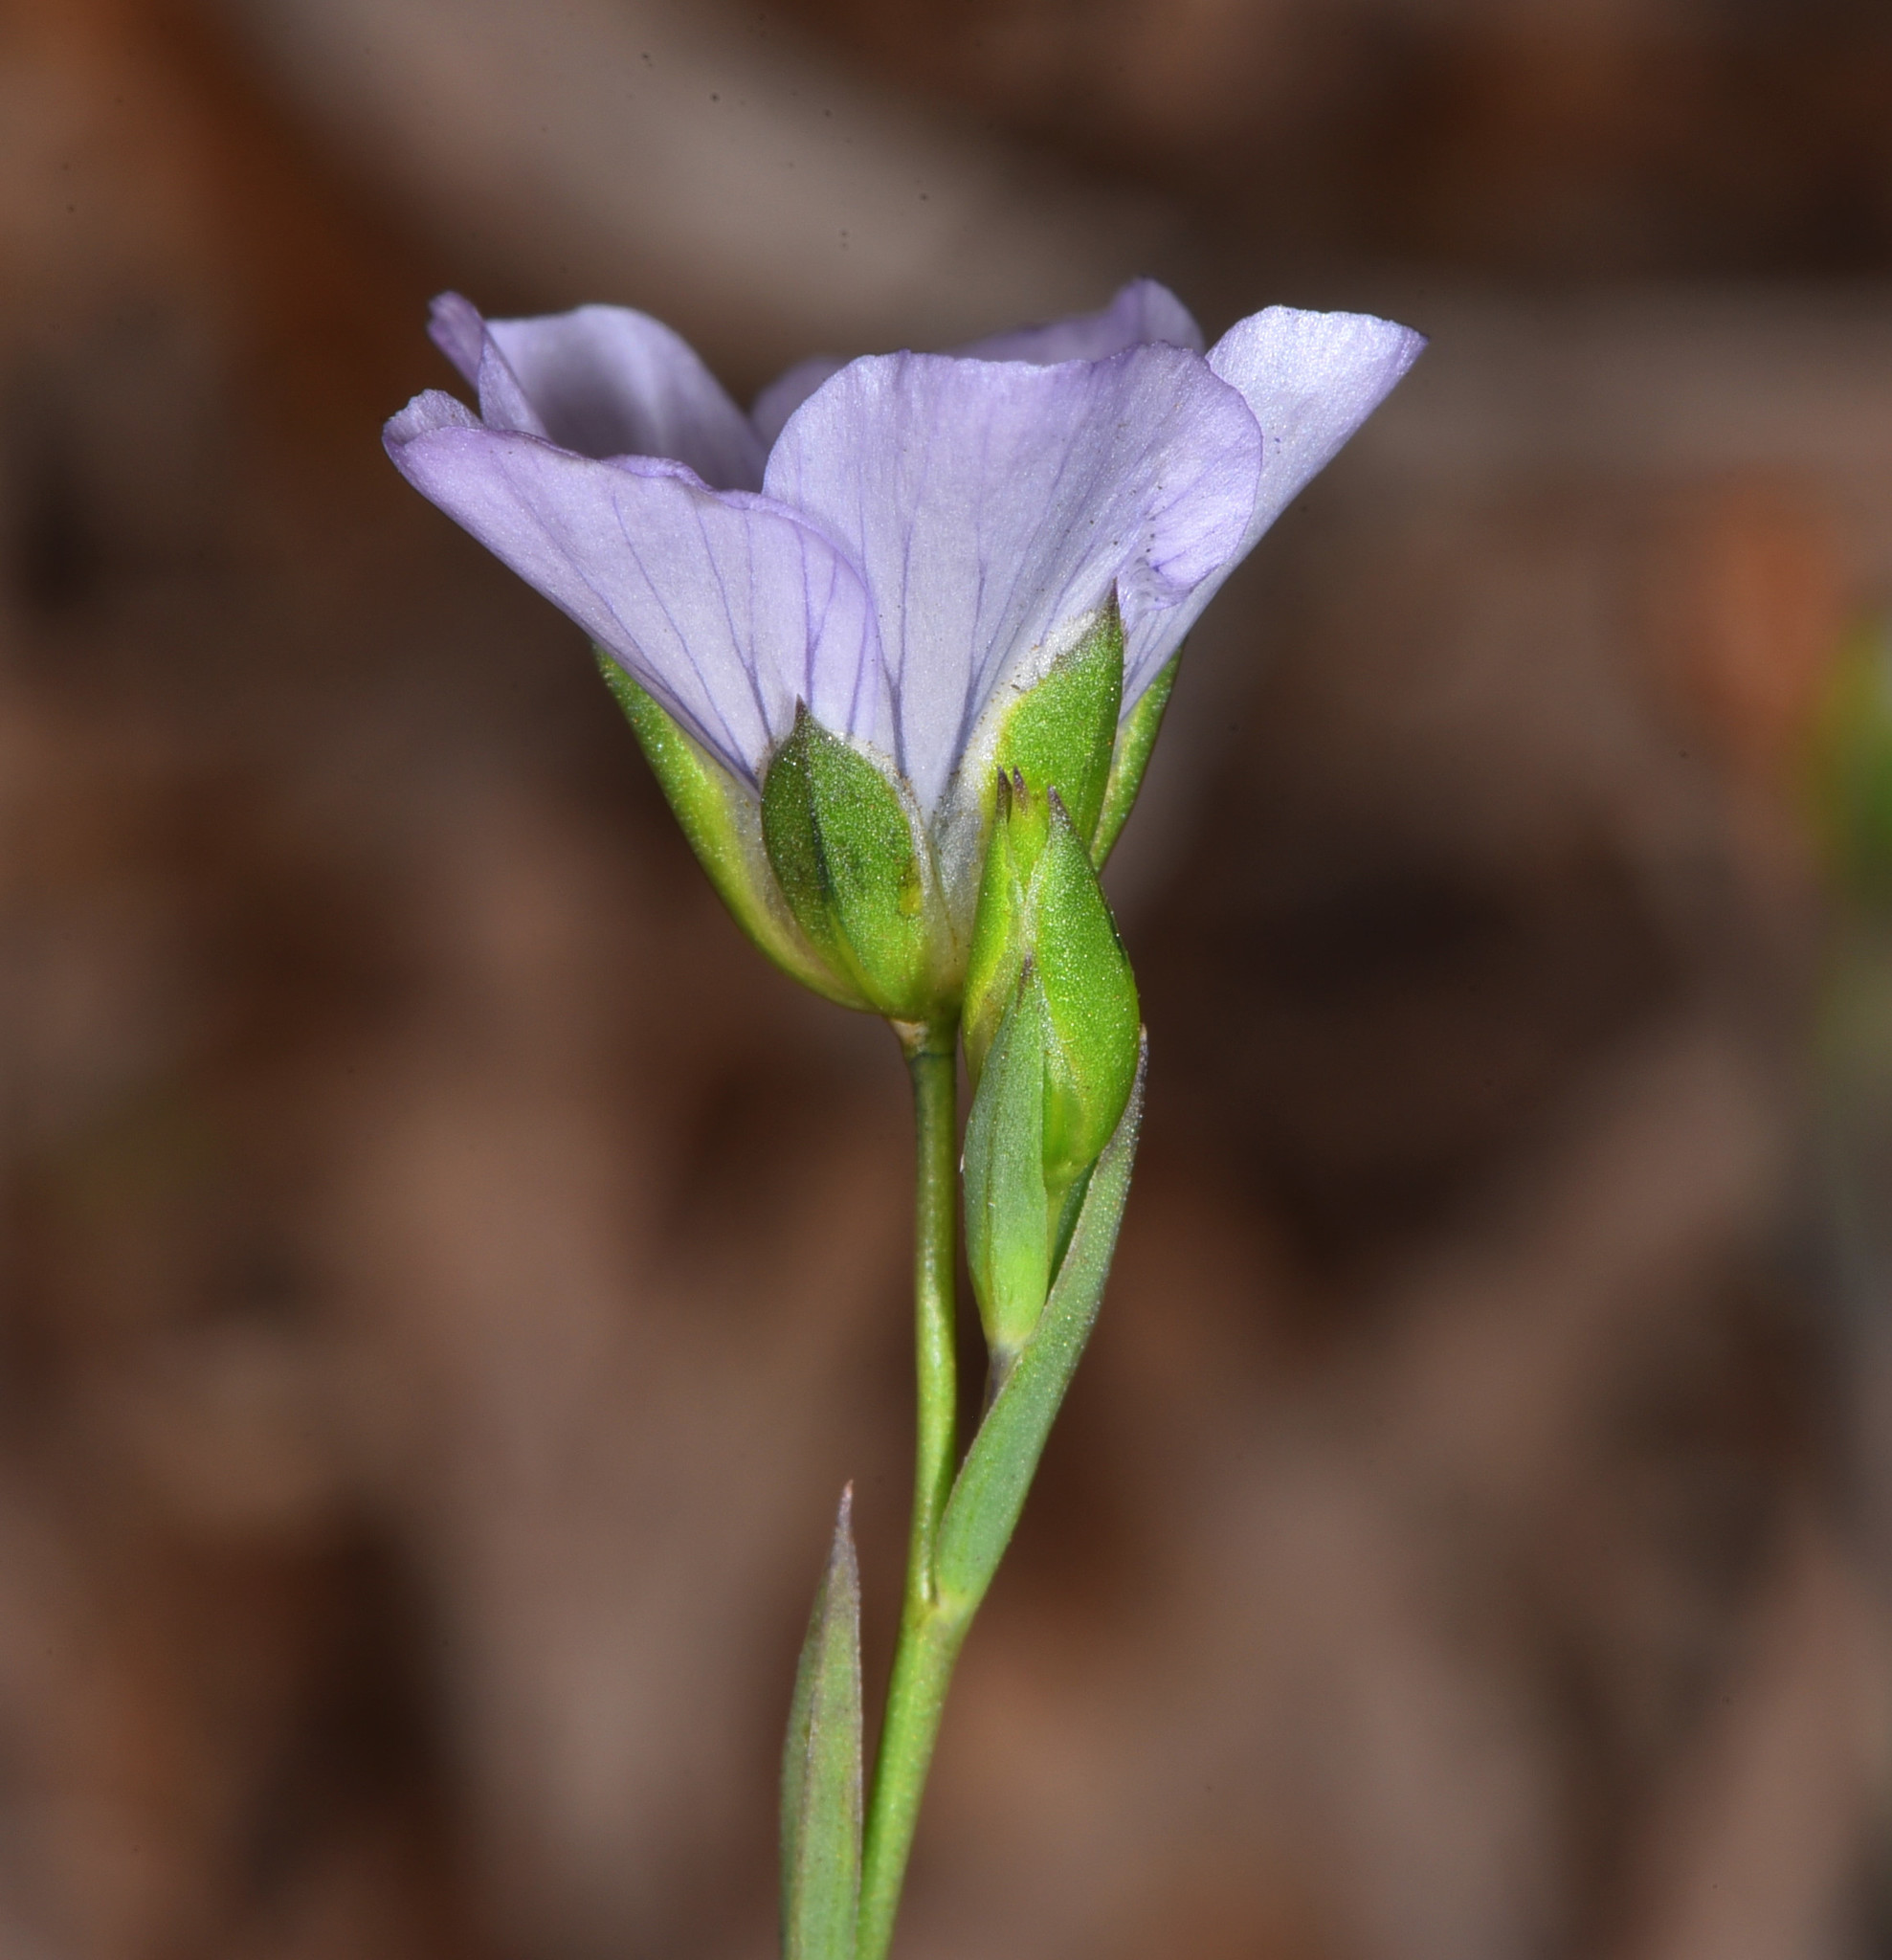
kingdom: Plantae
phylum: Tracheophyta
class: Magnoliopsida
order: Malpighiales
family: Linaceae
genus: Linum
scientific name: Linum bienne
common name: Pale flax
